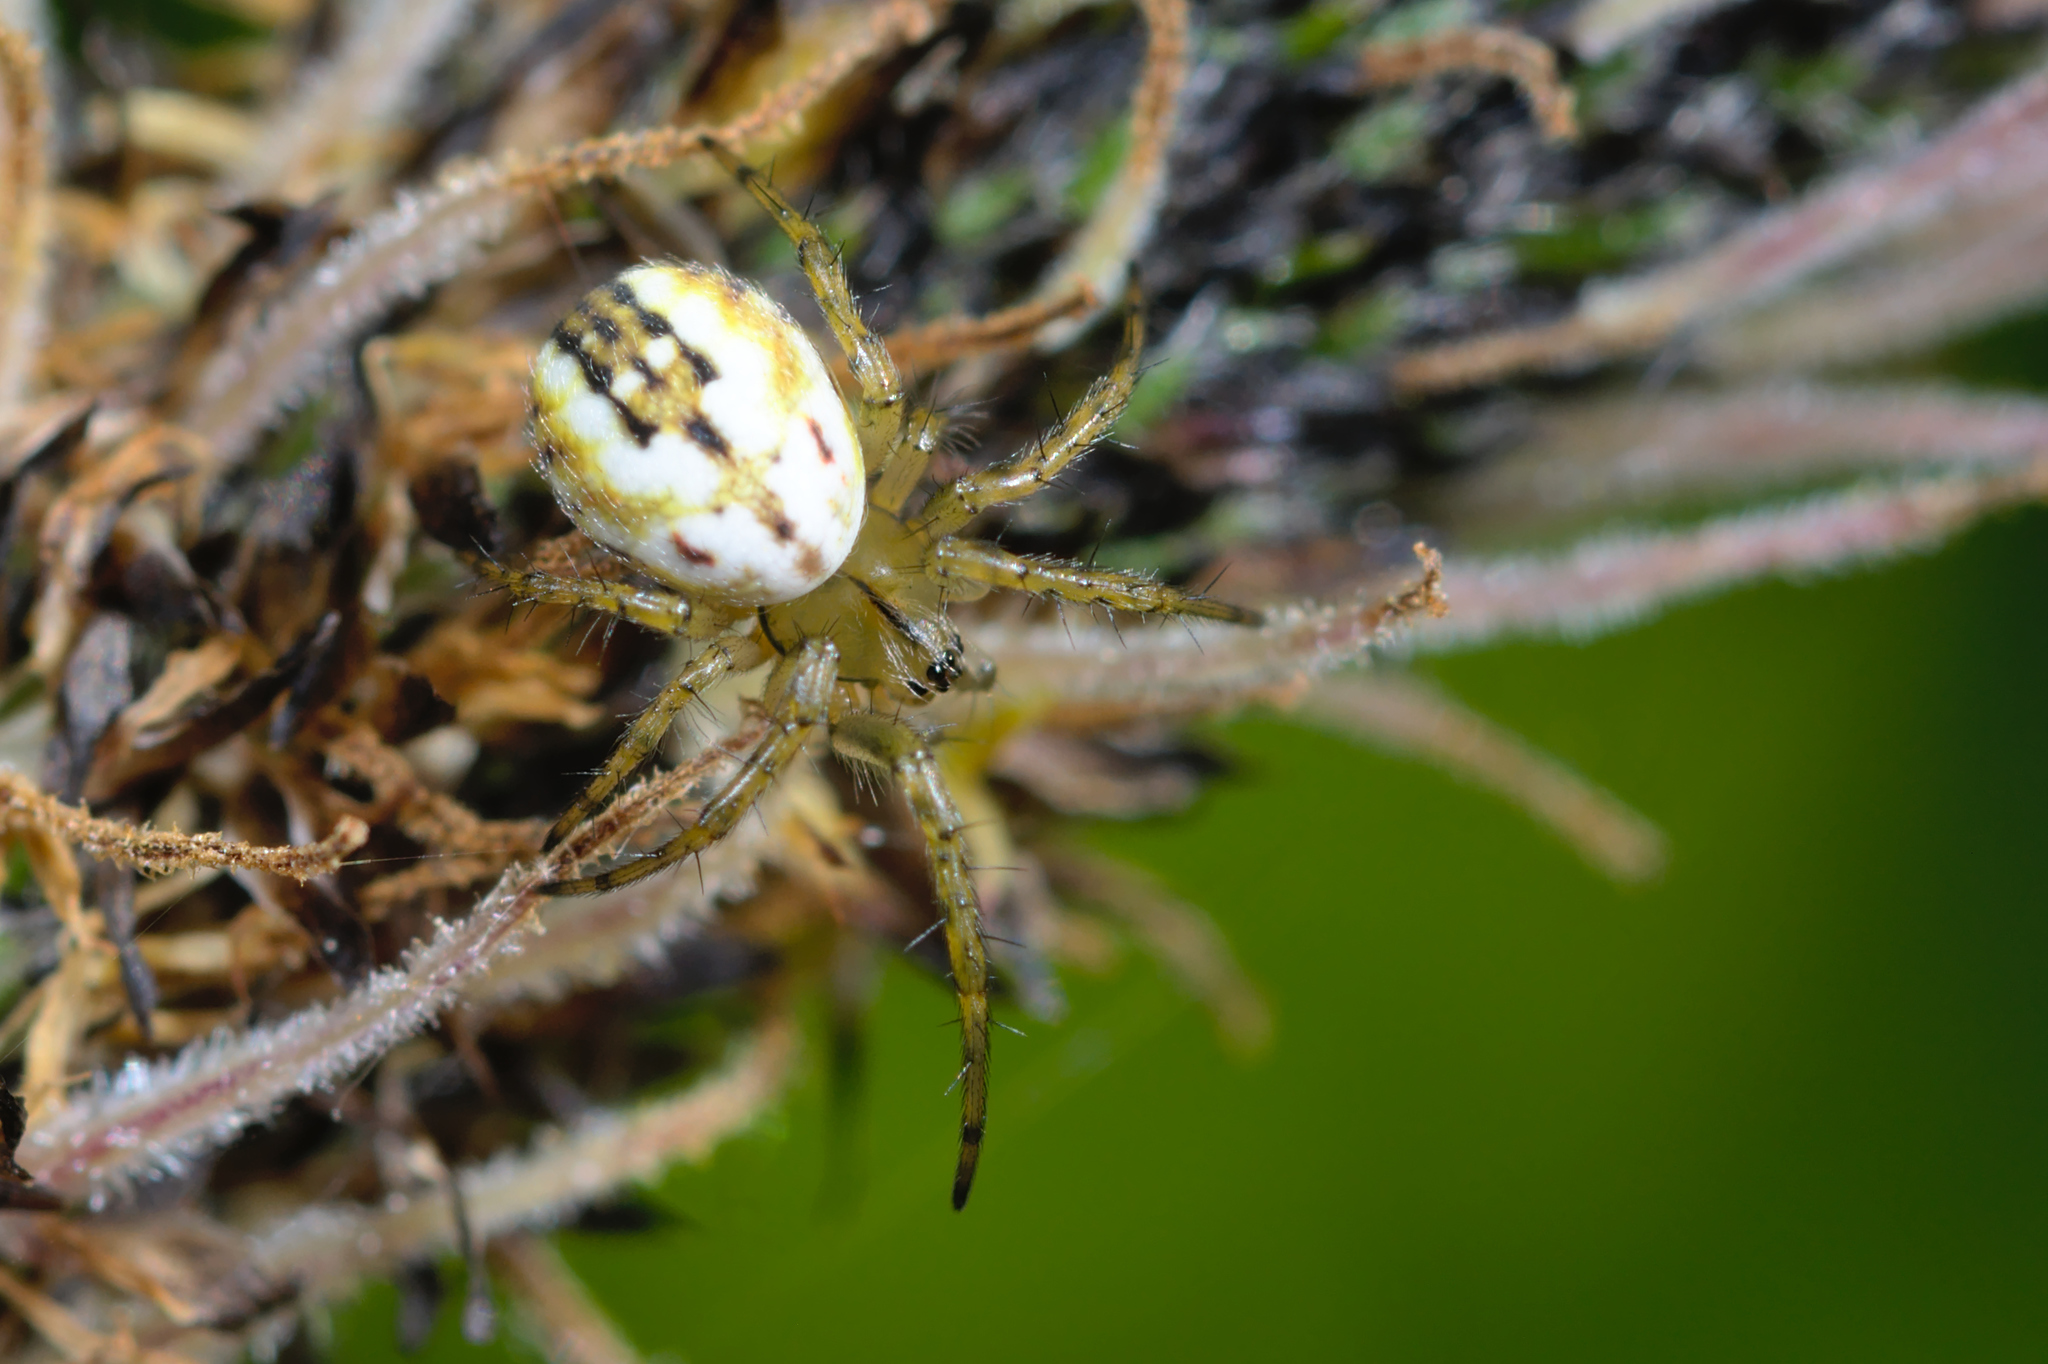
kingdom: Animalia
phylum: Arthropoda
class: Arachnida
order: Araneae
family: Araneidae
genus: Mangora
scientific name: Mangora acalypha
